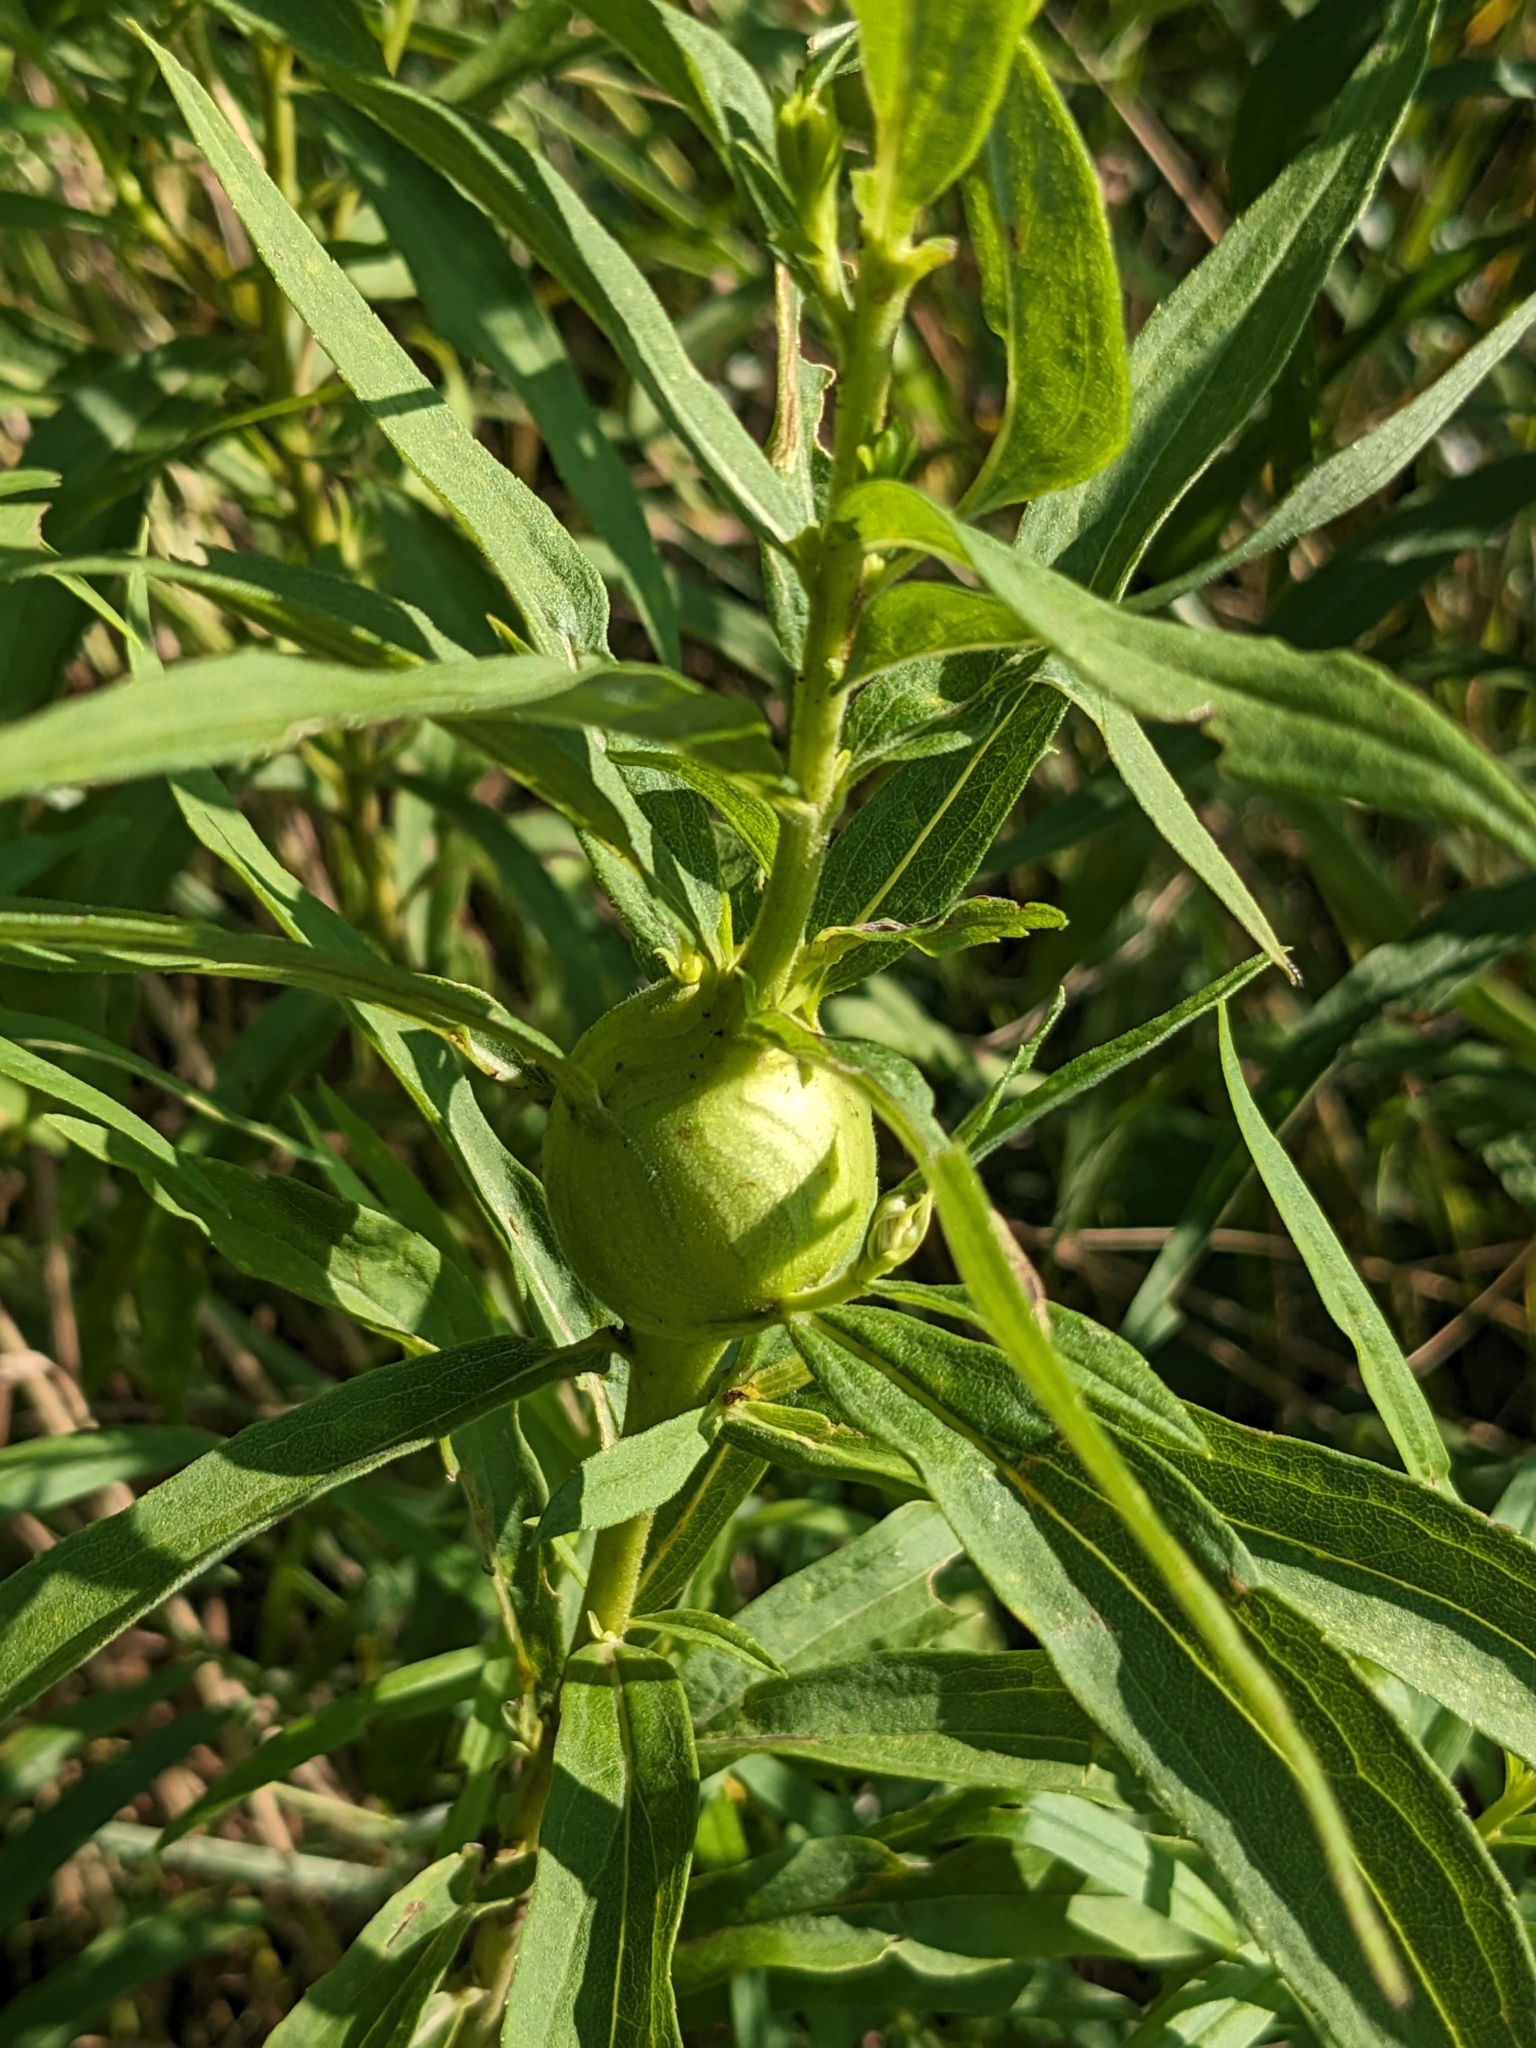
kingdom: Animalia
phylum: Arthropoda
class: Insecta
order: Diptera
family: Tephritidae
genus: Eurosta
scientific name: Eurosta solidaginis
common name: Goldenrod gall fly
